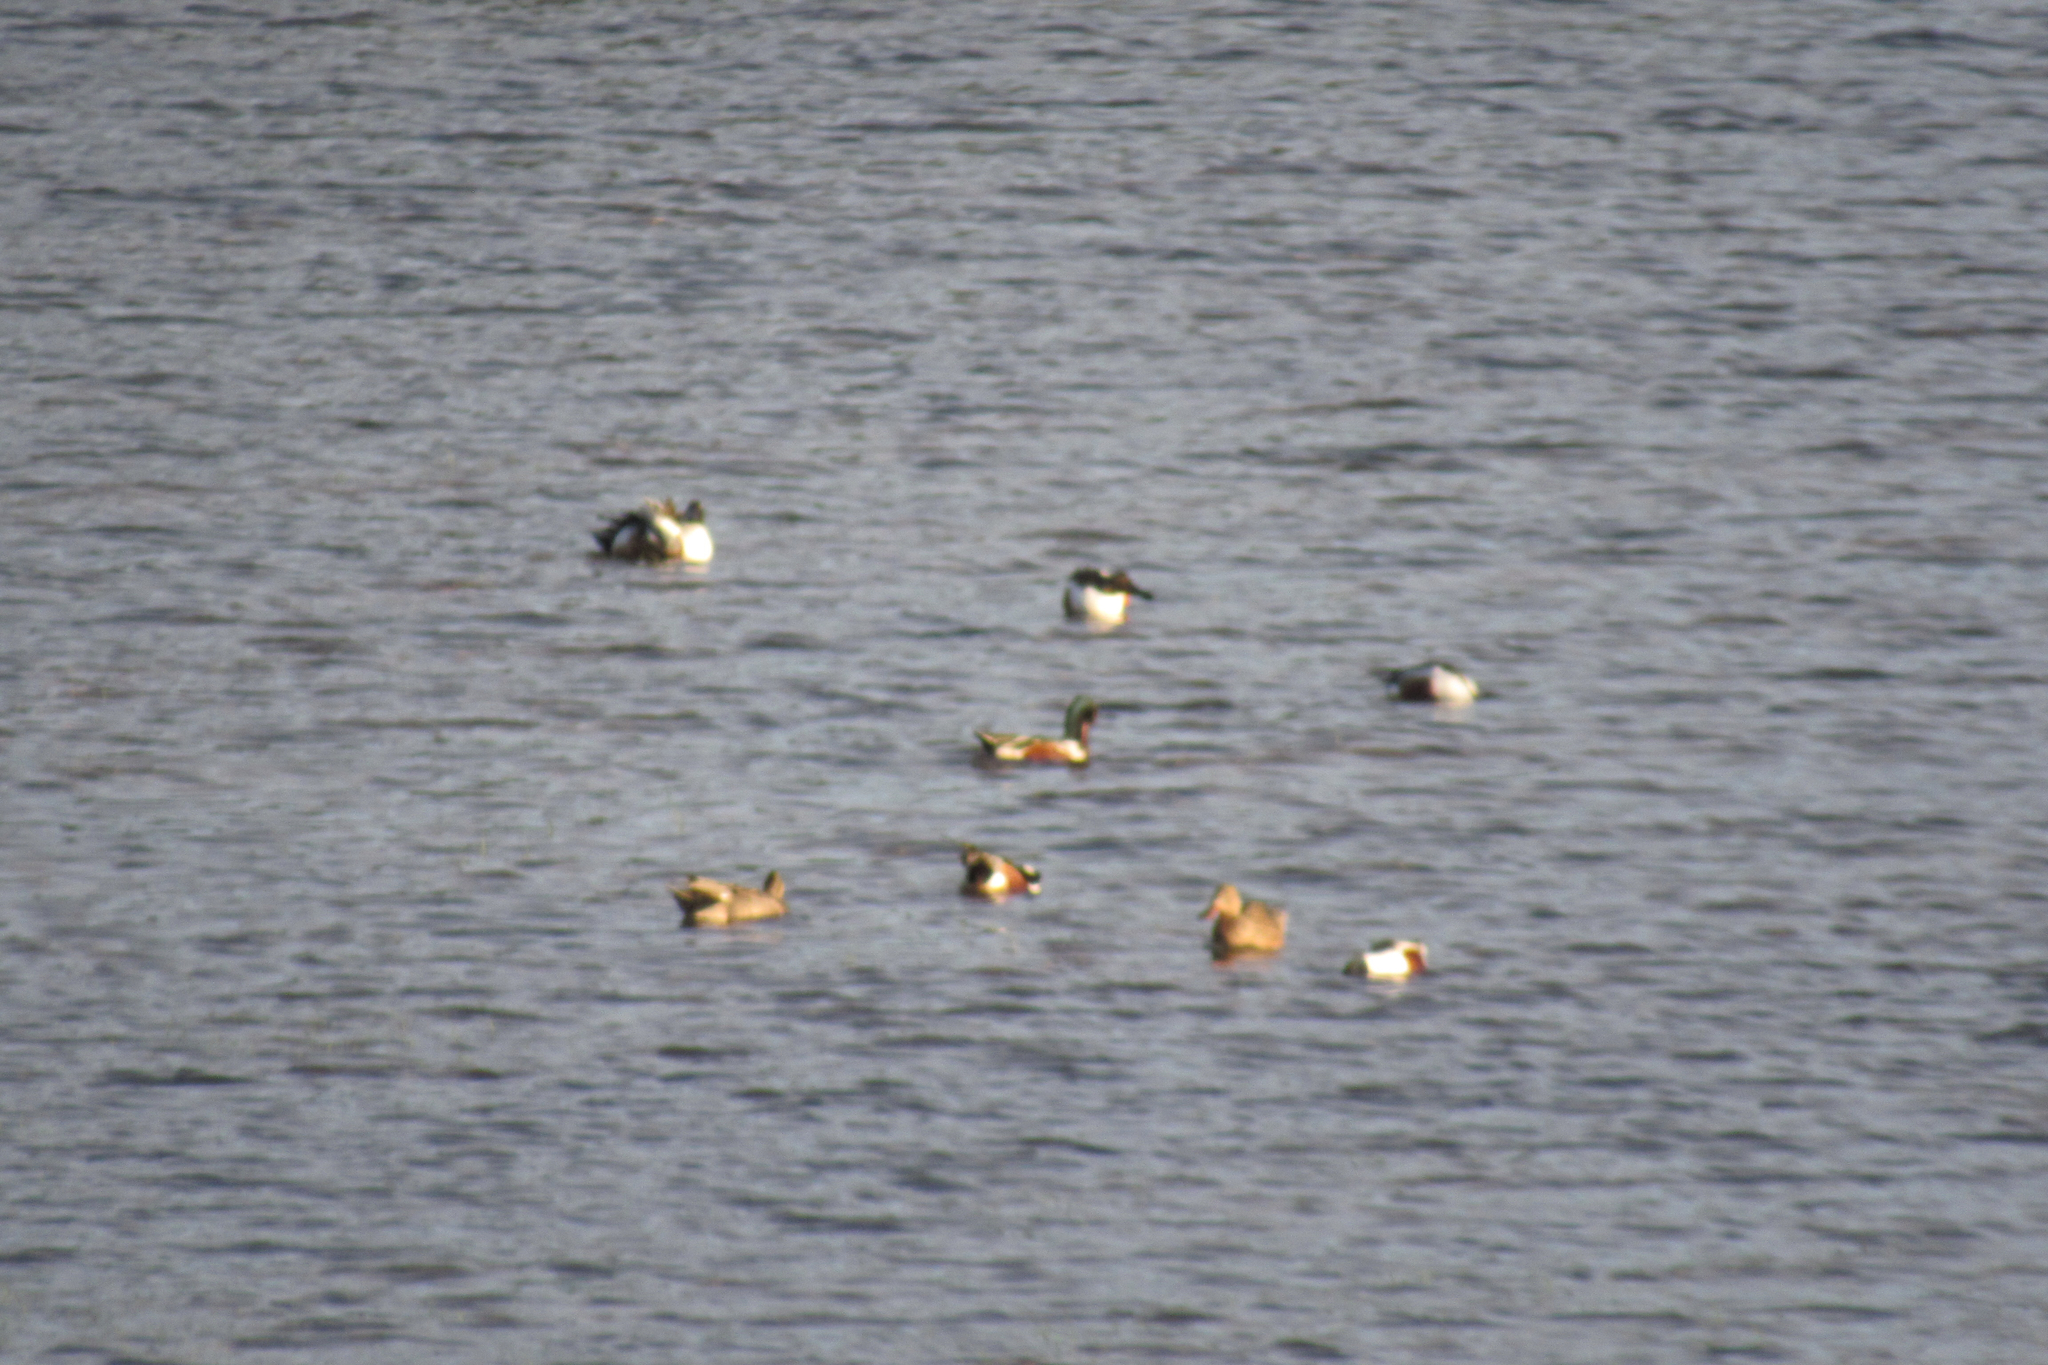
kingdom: Animalia
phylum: Chordata
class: Aves
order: Anseriformes
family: Anatidae
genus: Spatula
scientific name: Spatula clypeata
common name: Northern shoveler
